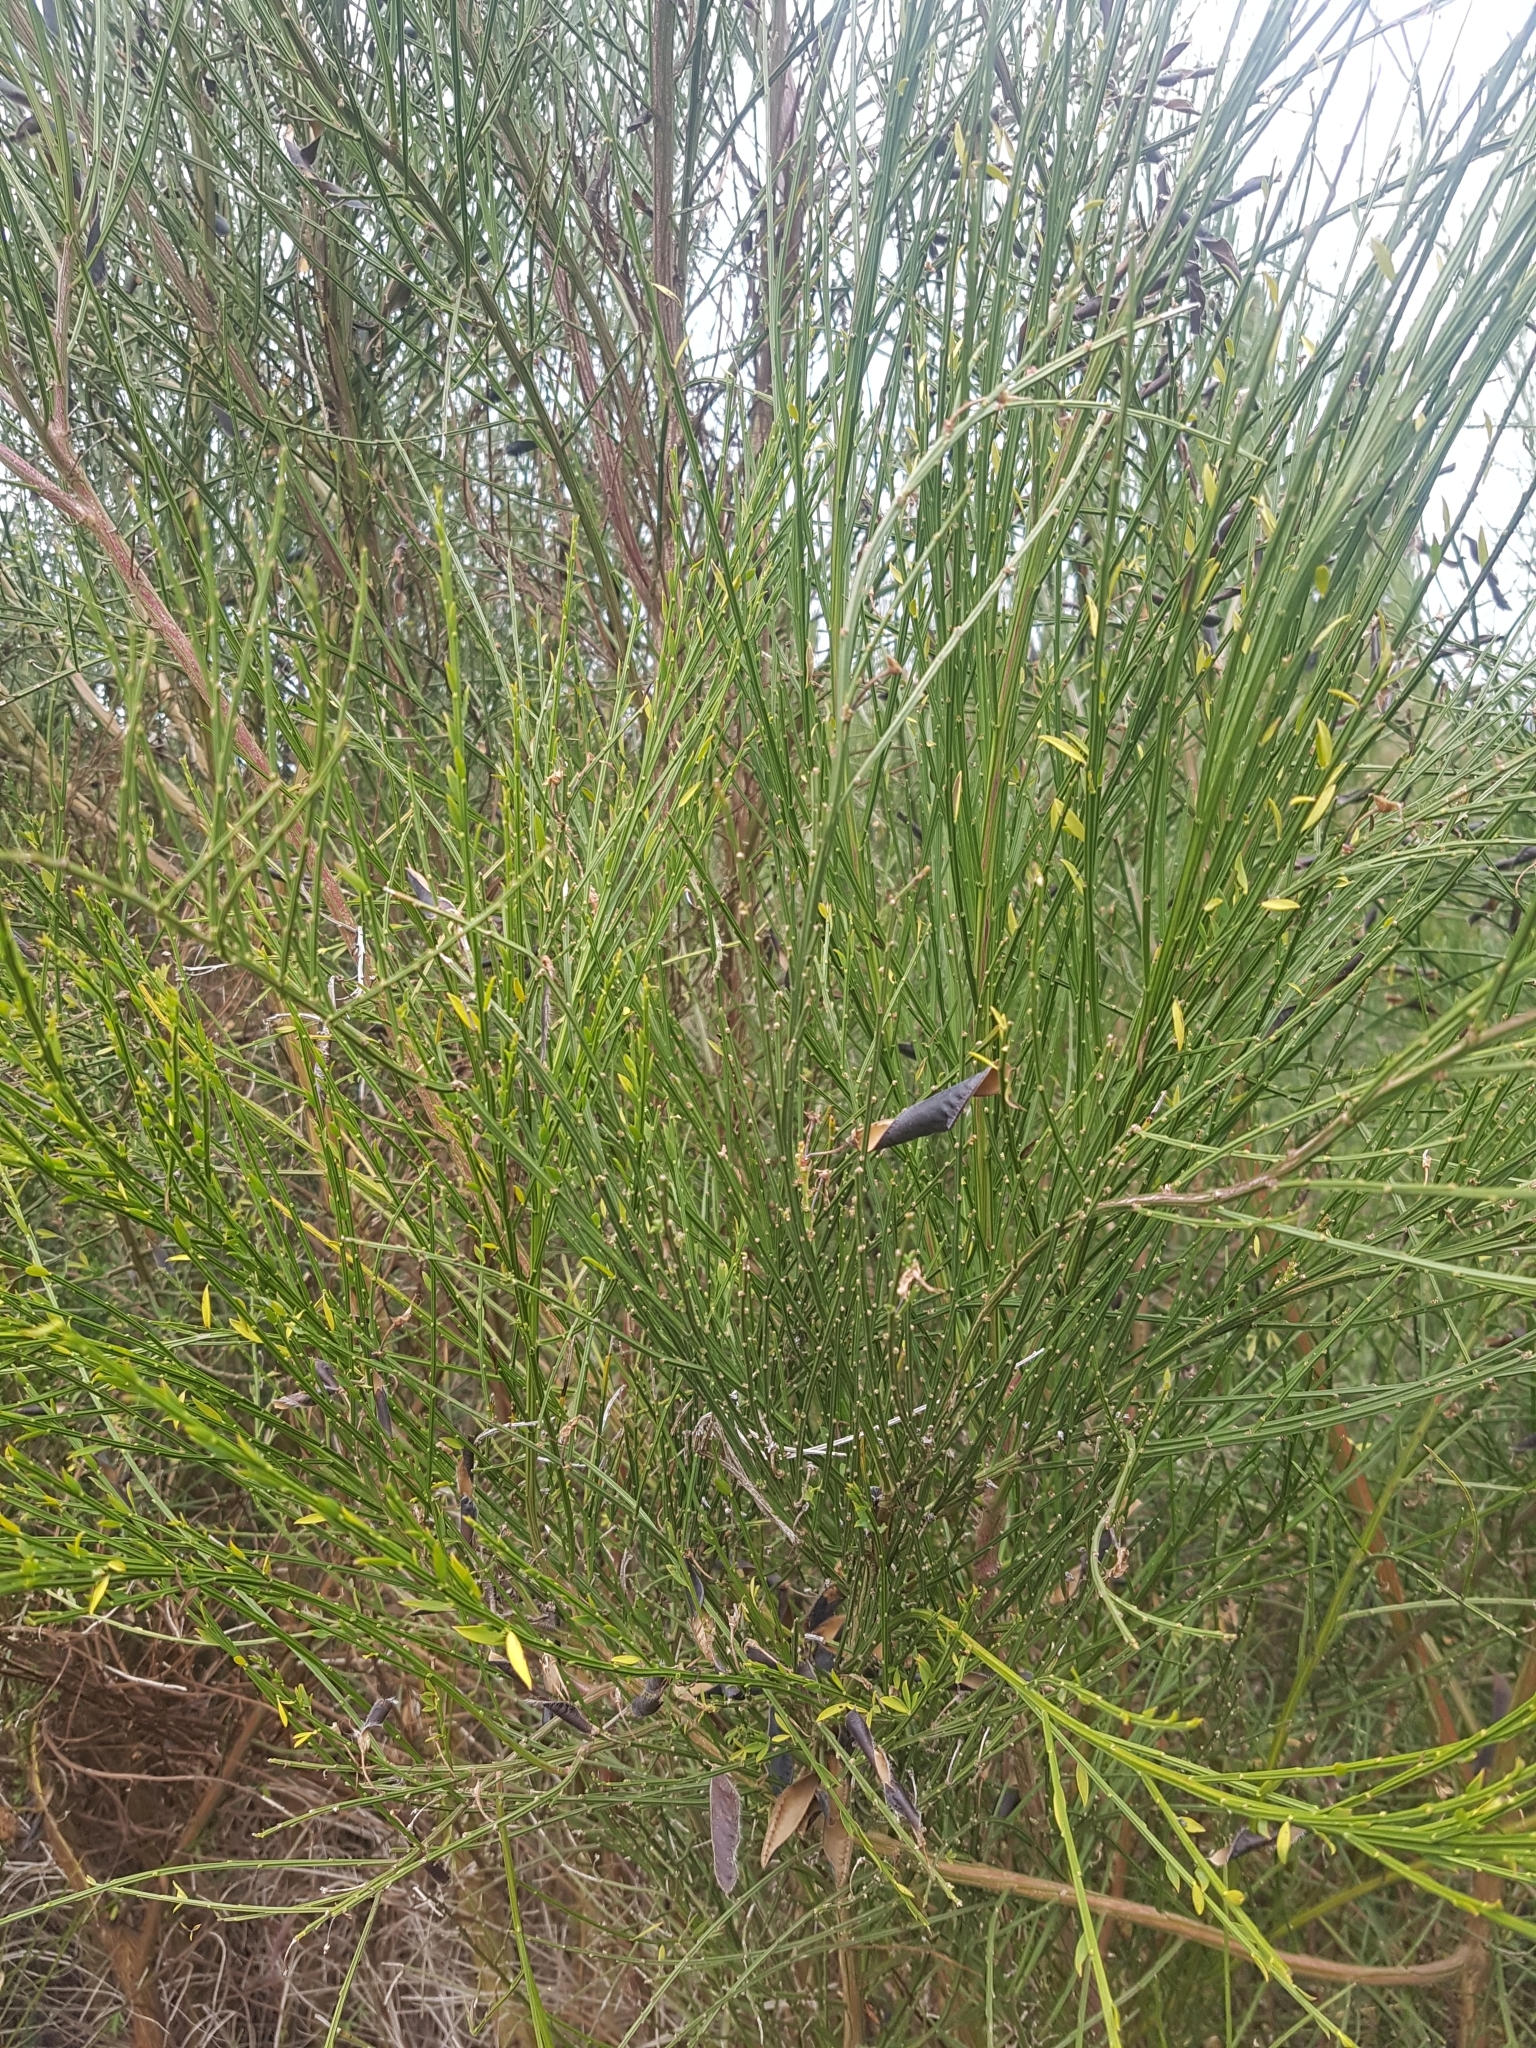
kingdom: Plantae
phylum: Tracheophyta
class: Magnoliopsida
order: Fabales
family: Fabaceae
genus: Cytisus
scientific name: Cytisus scoparius
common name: Scotch broom
